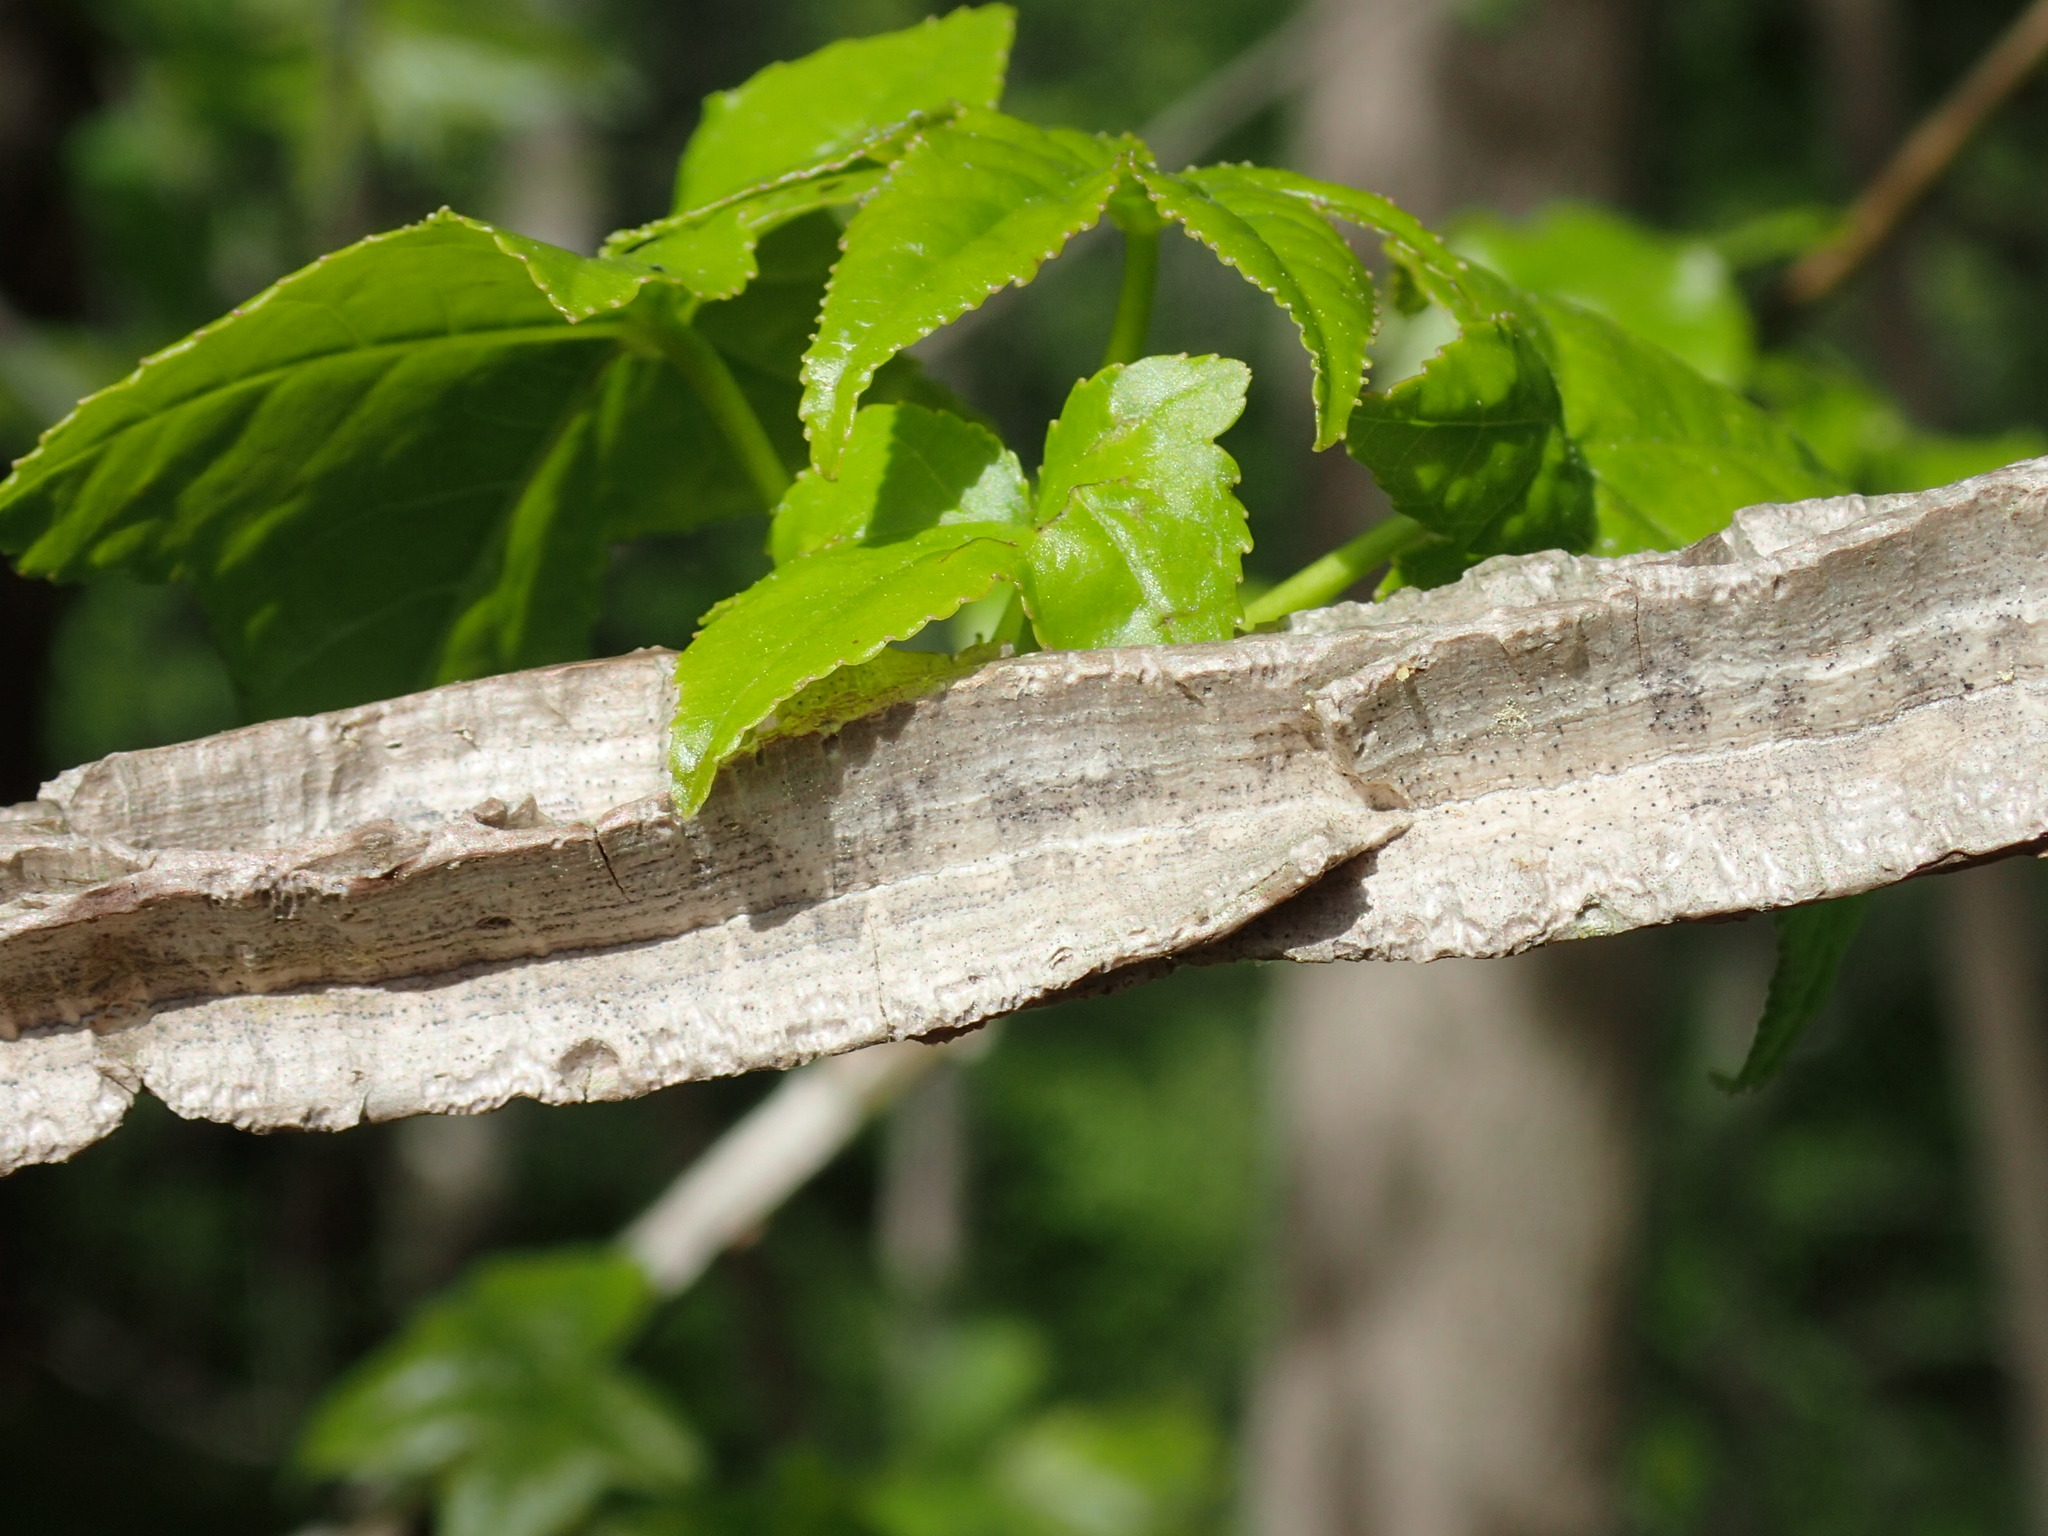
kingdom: Plantae
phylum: Tracheophyta
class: Magnoliopsida
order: Saxifragales
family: Altingiaceae
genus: Liquidambar
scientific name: Liquidambar styraciflua
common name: Sweet gum
